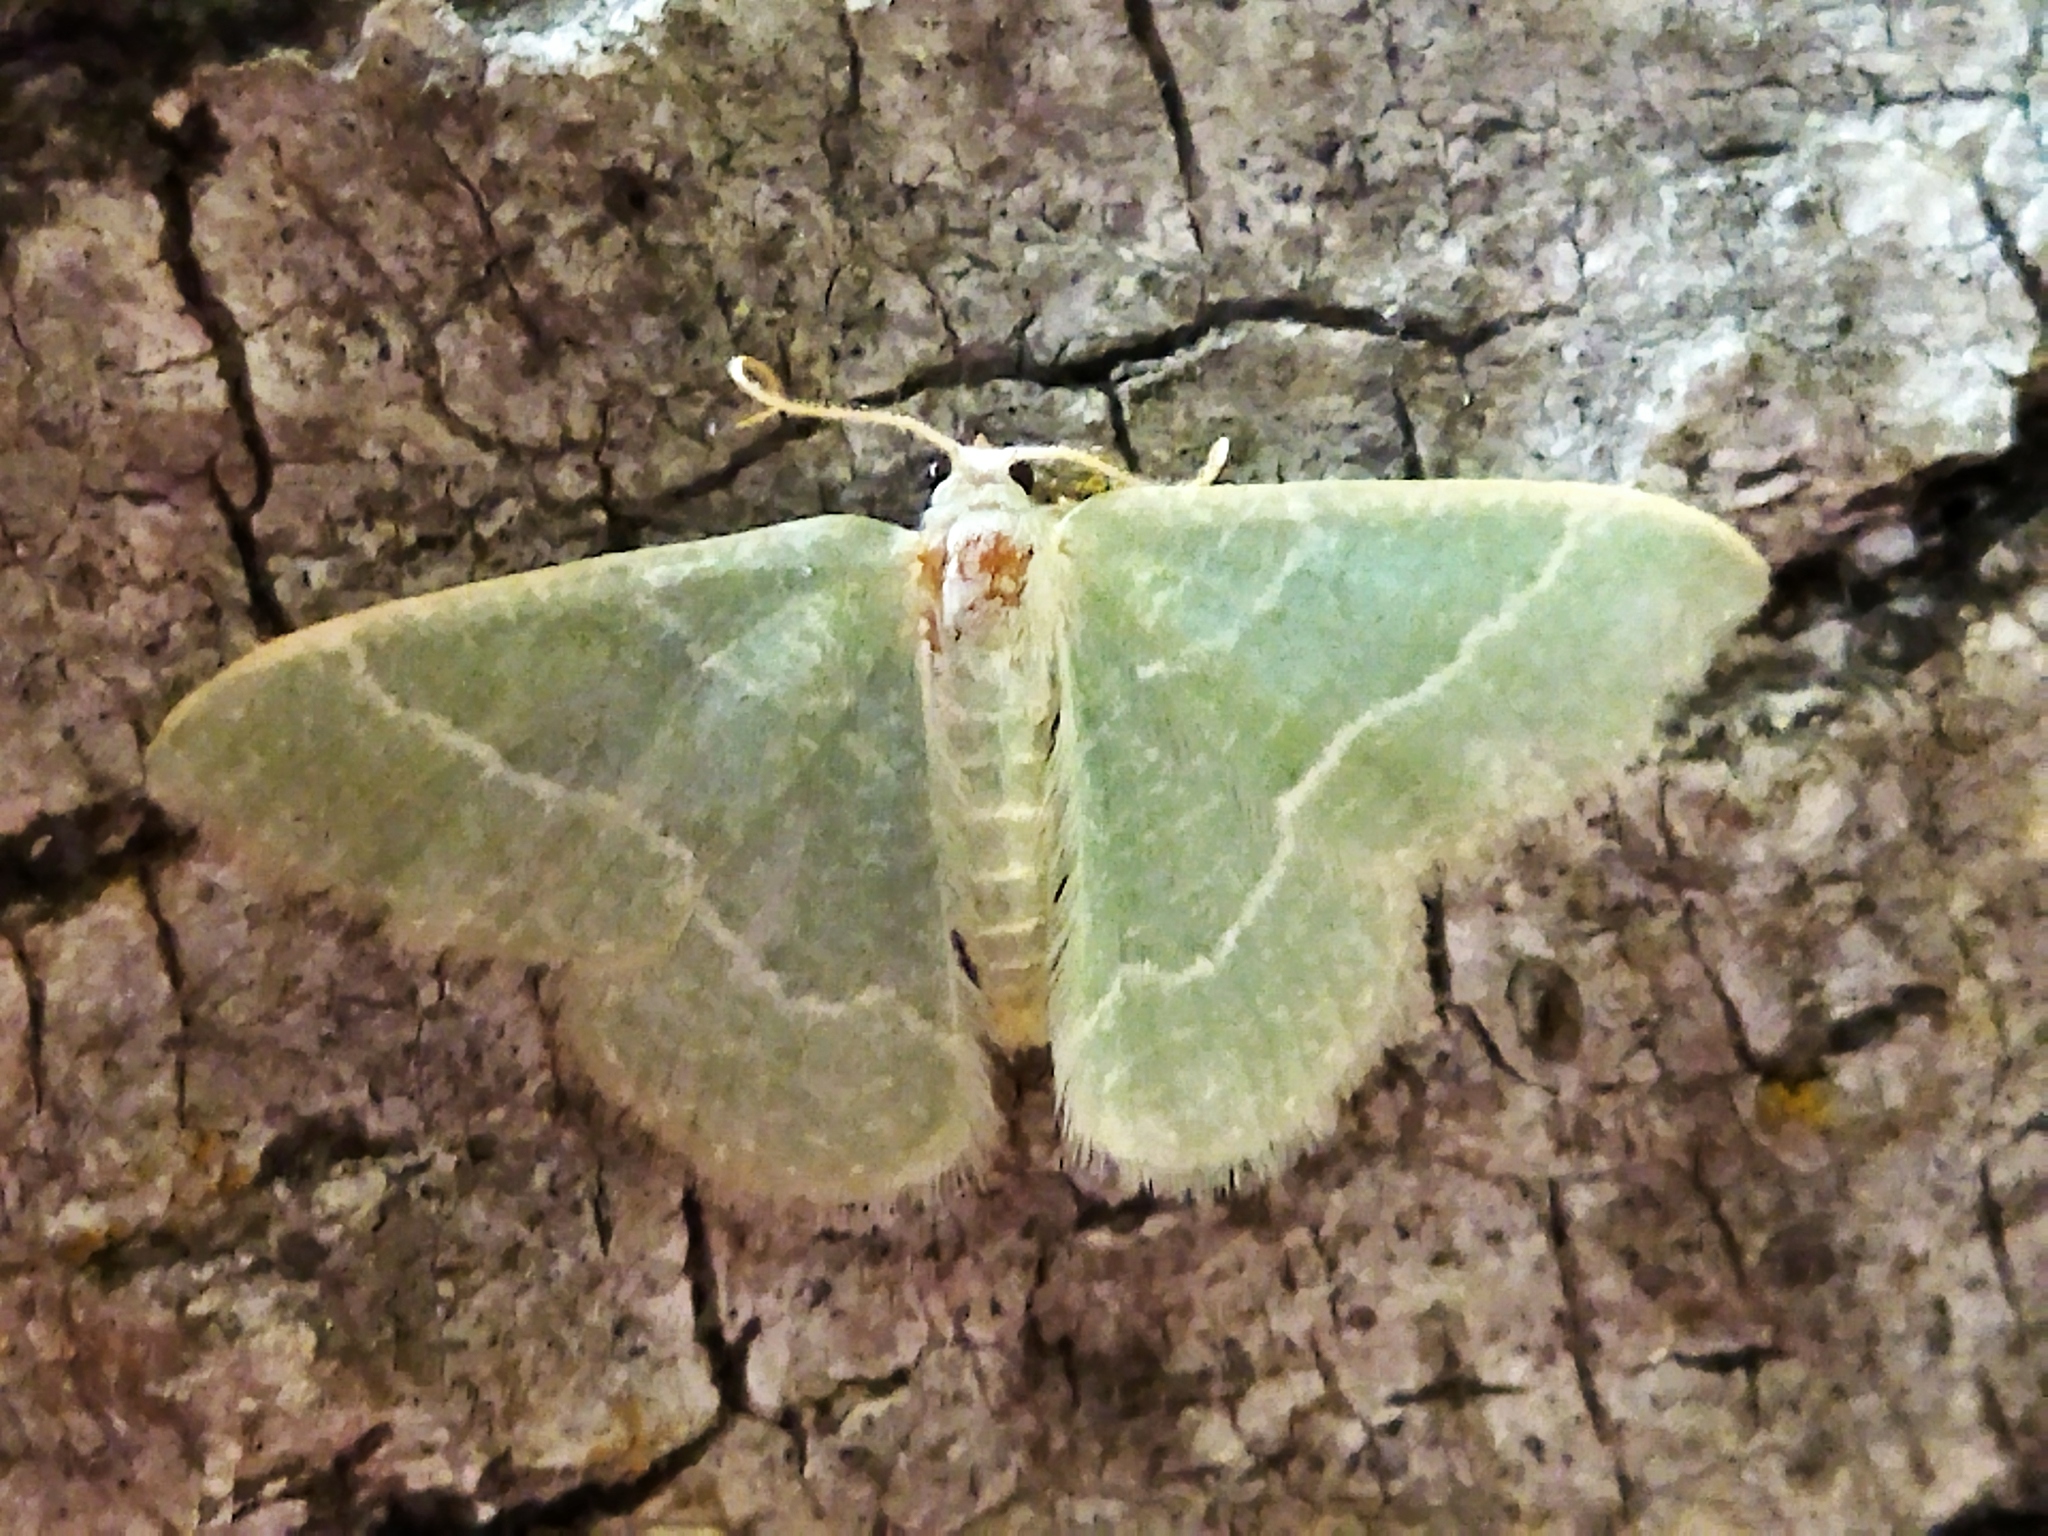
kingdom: Animalia
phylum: Arthropoda
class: Insecta
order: Lepidoptera
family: Geometridae
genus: Chlorissa
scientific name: Chlorissa etruscaria
